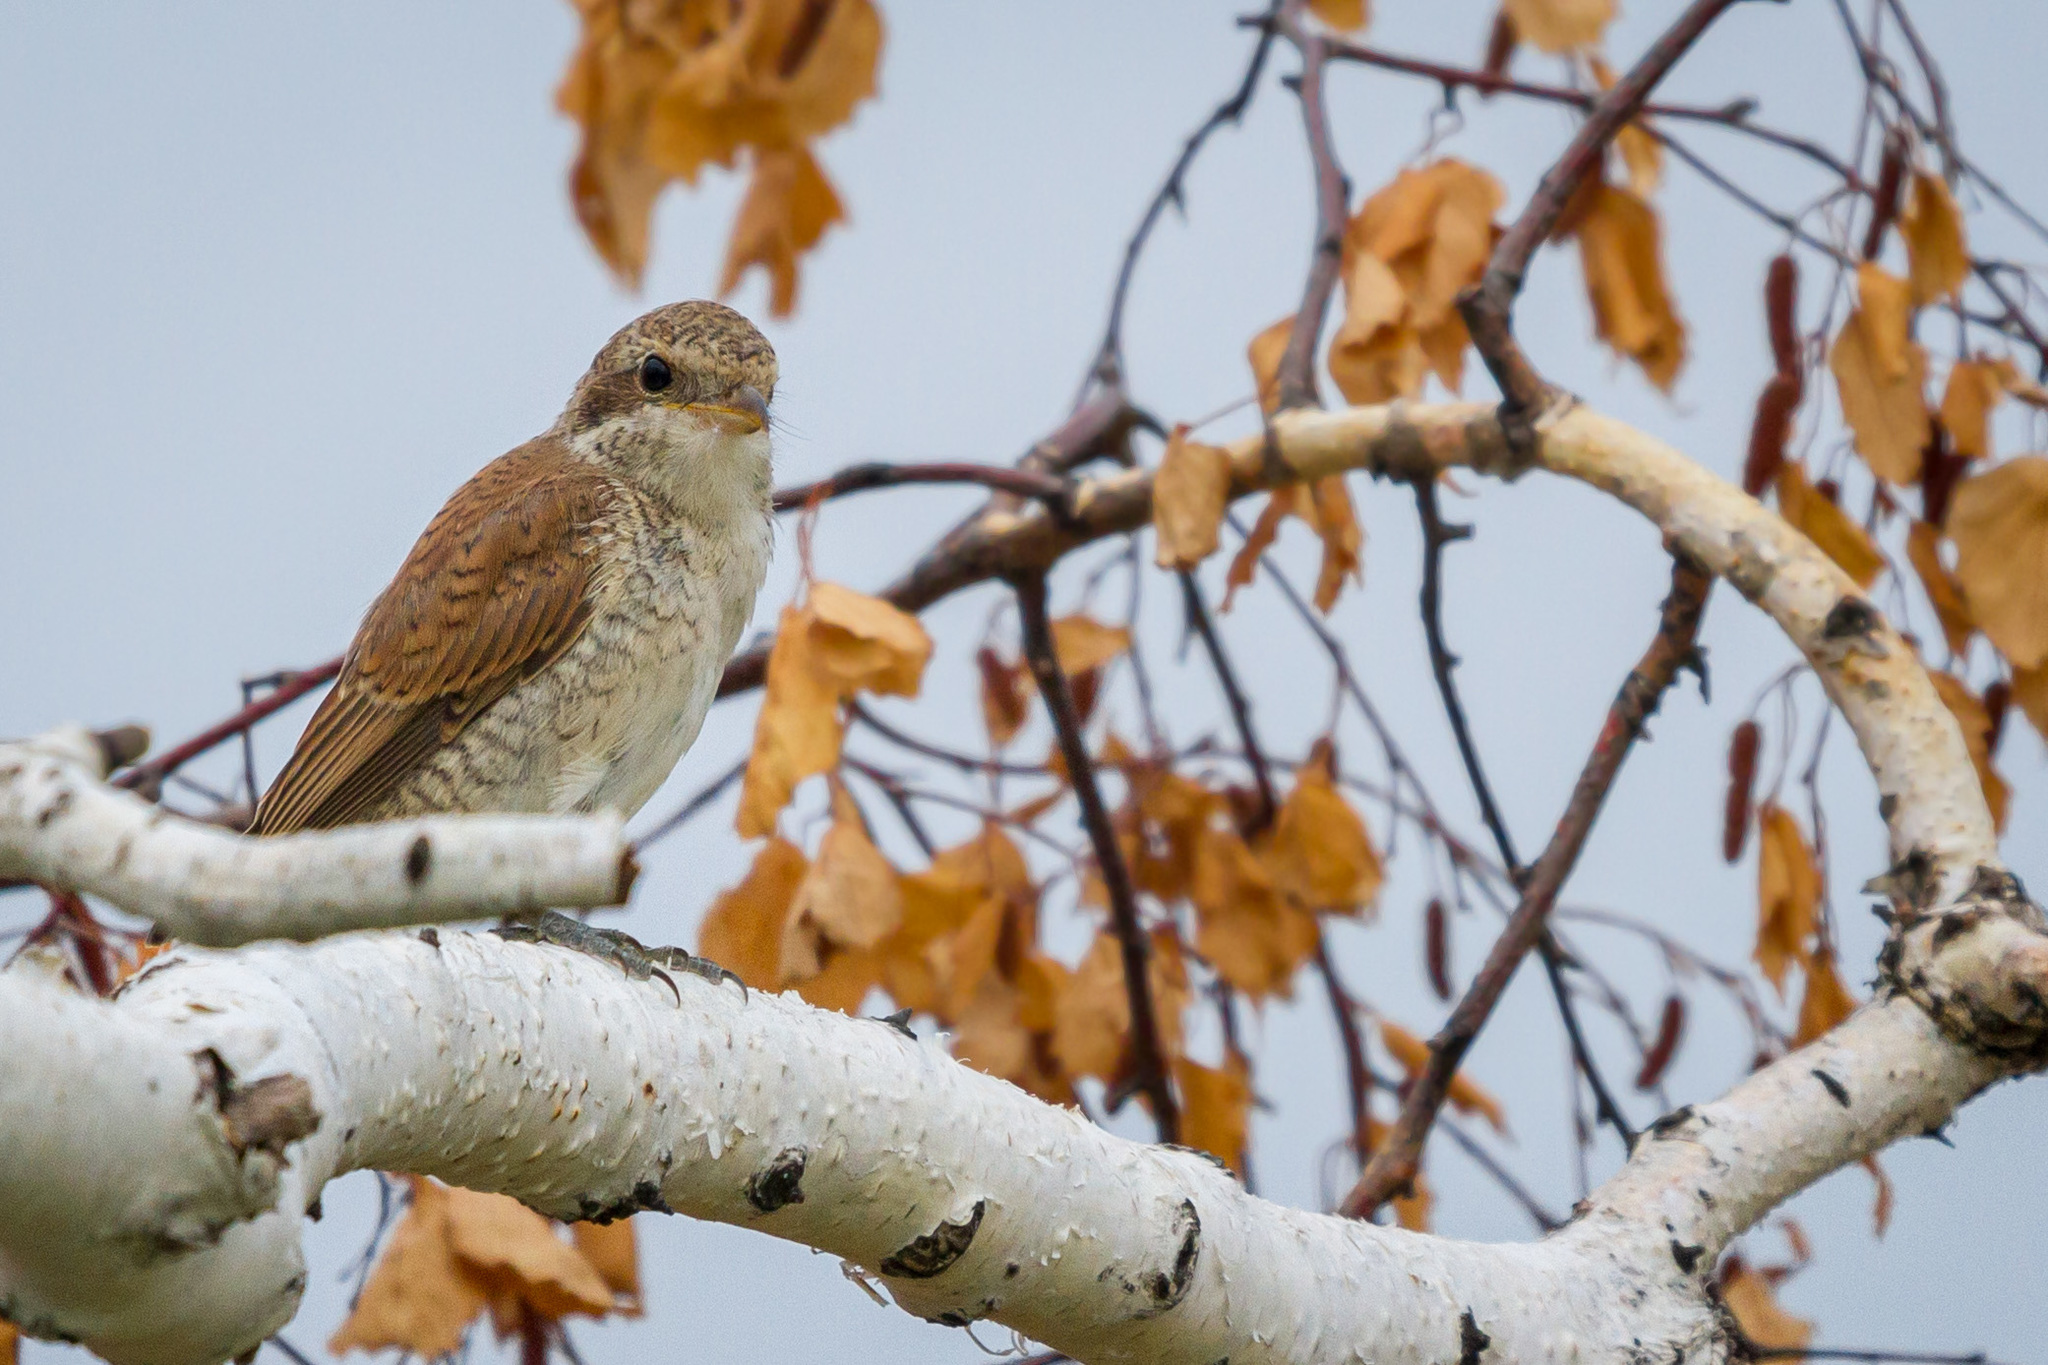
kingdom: Animalia
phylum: Chordata
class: Aves
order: Passeriformes
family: Laniidae
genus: Lanius
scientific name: Lanius collurio
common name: Red-backed shrike
